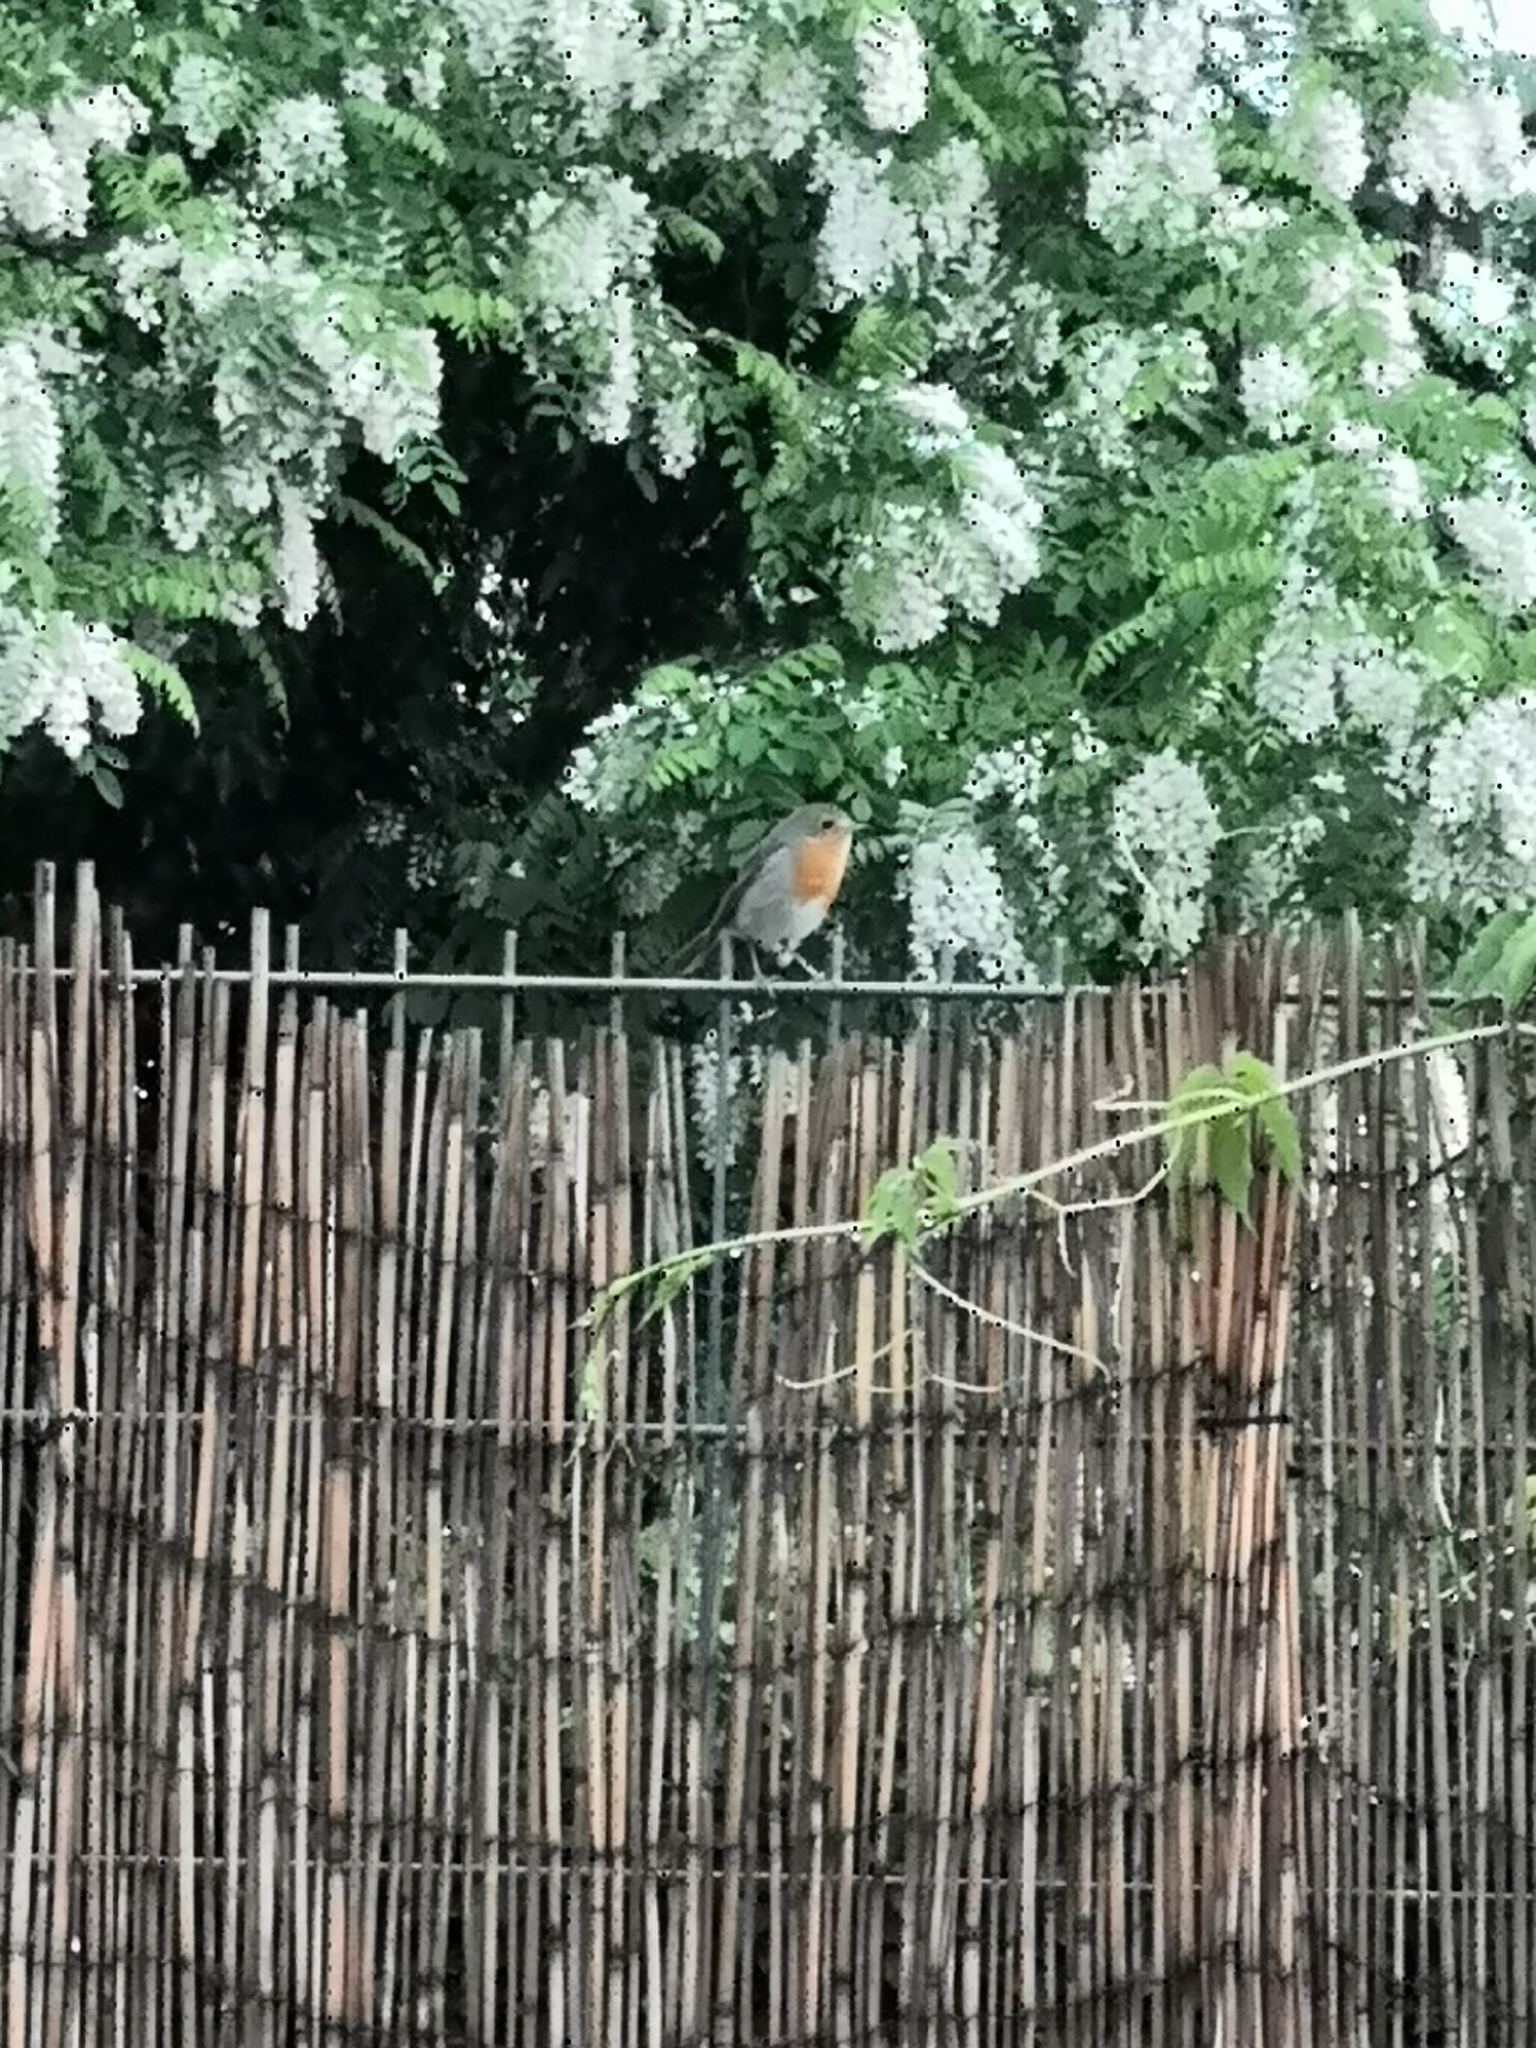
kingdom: Animalia
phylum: Chordata
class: Aves
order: Passeriformes
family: Muscicapidae
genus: Erithacus
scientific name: Erithacus rubecula
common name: European robin
